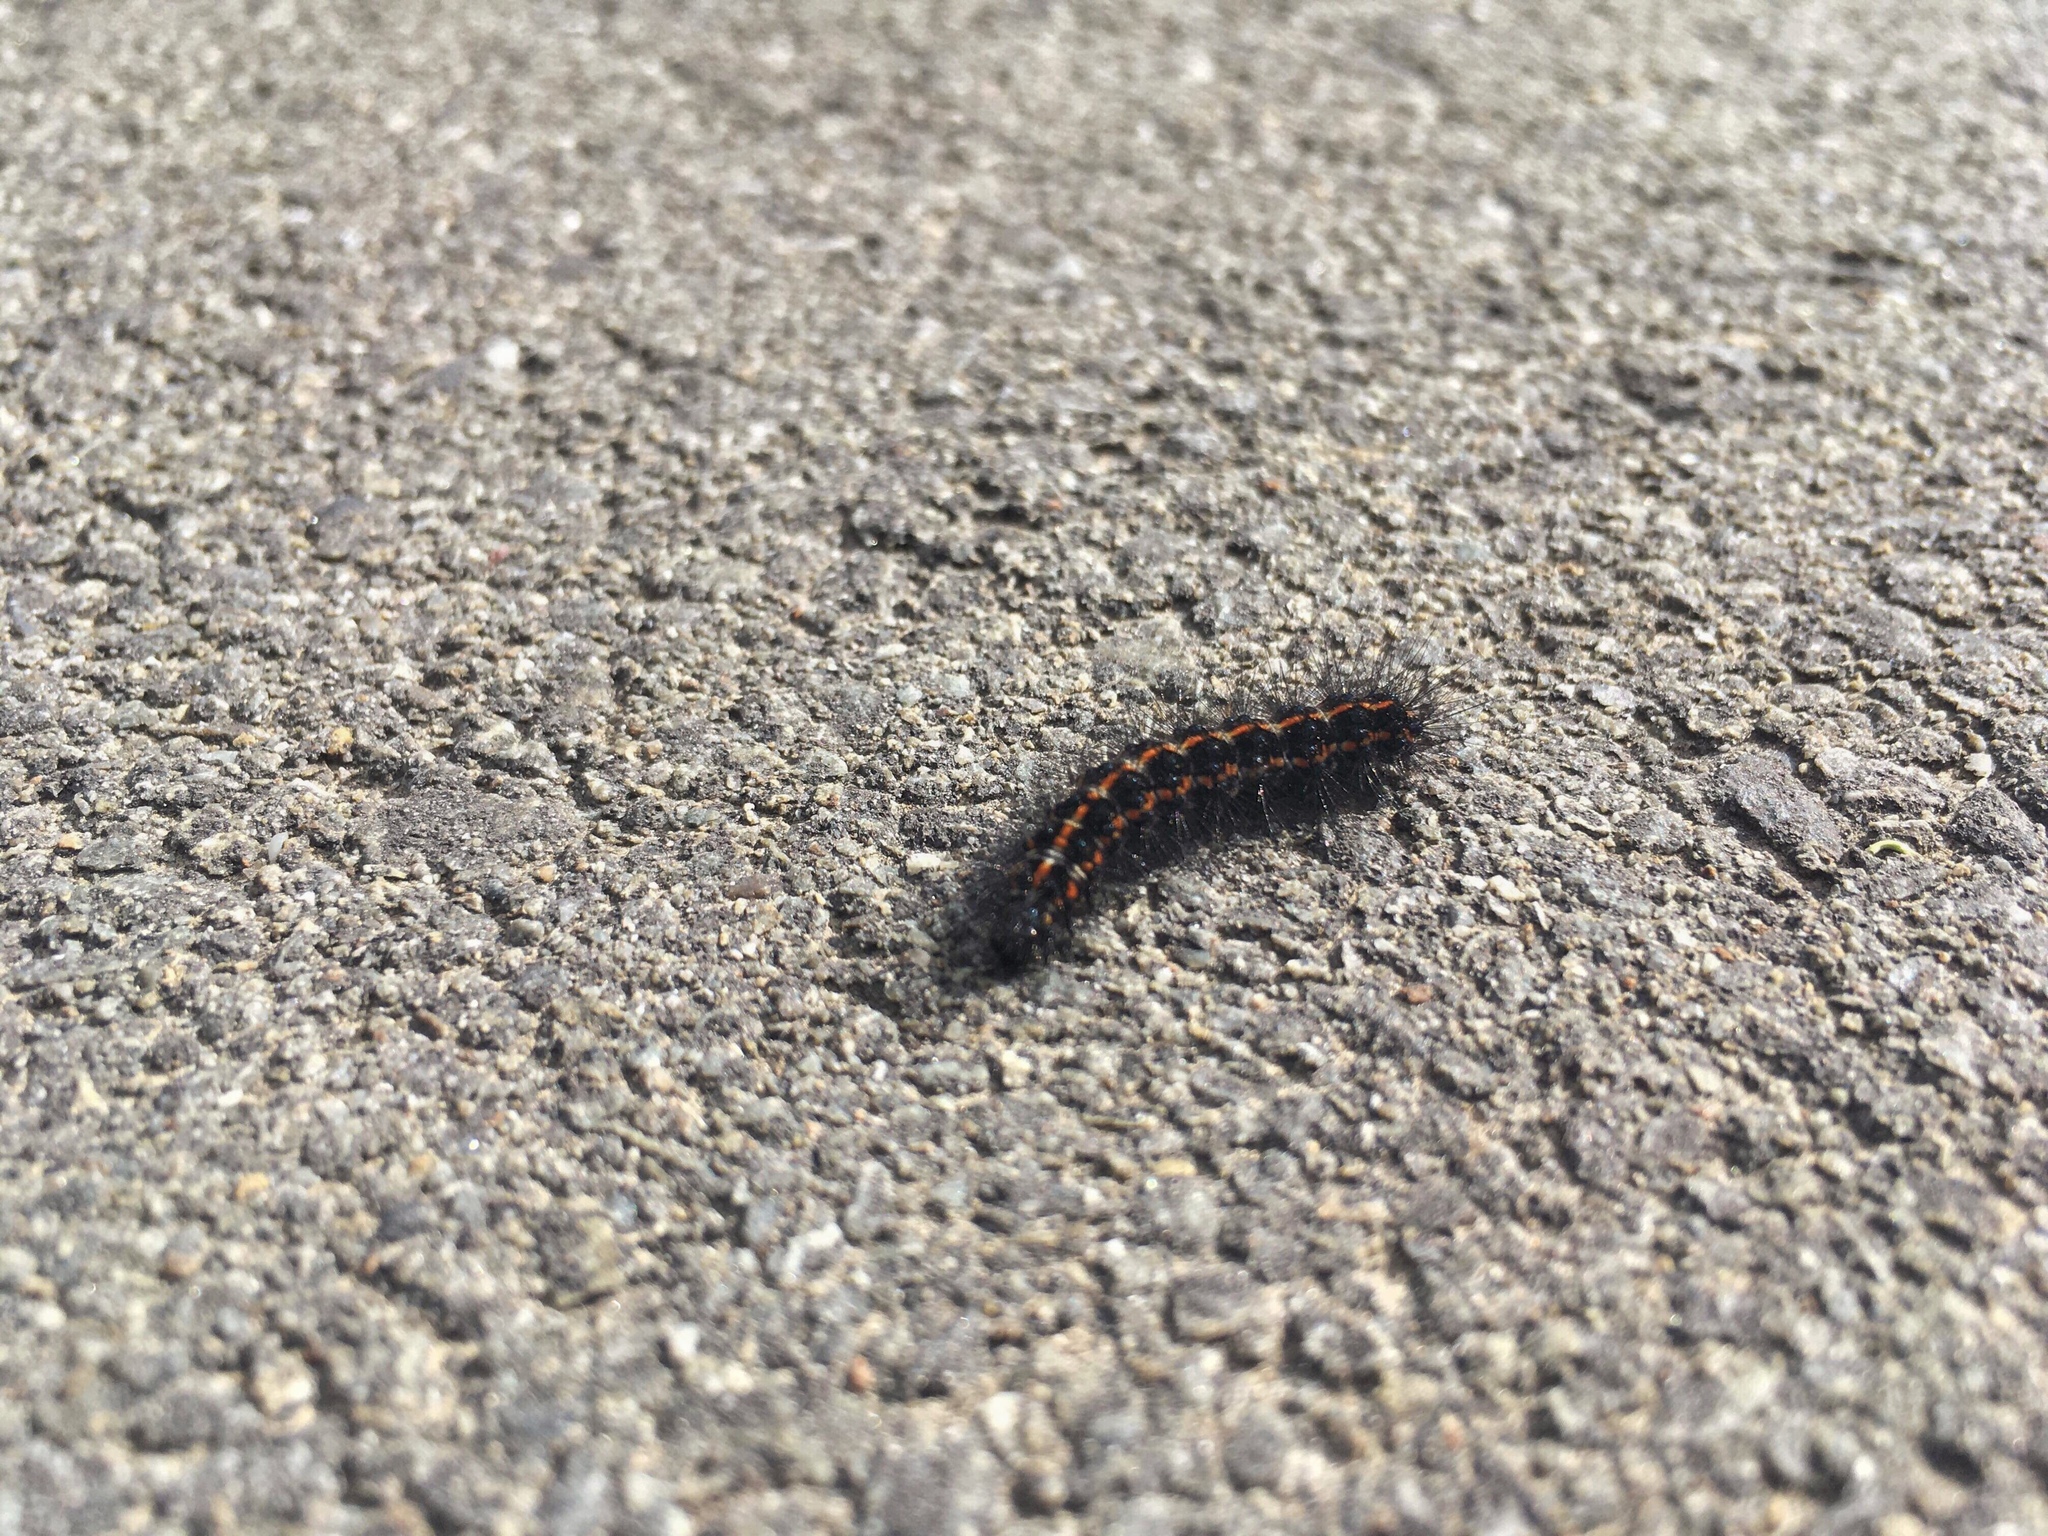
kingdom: Animalia
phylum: Arthropoda
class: Insecta
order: Lepidoptera
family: Erebidae
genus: Nyctemera
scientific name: Nyctemera annulatum
